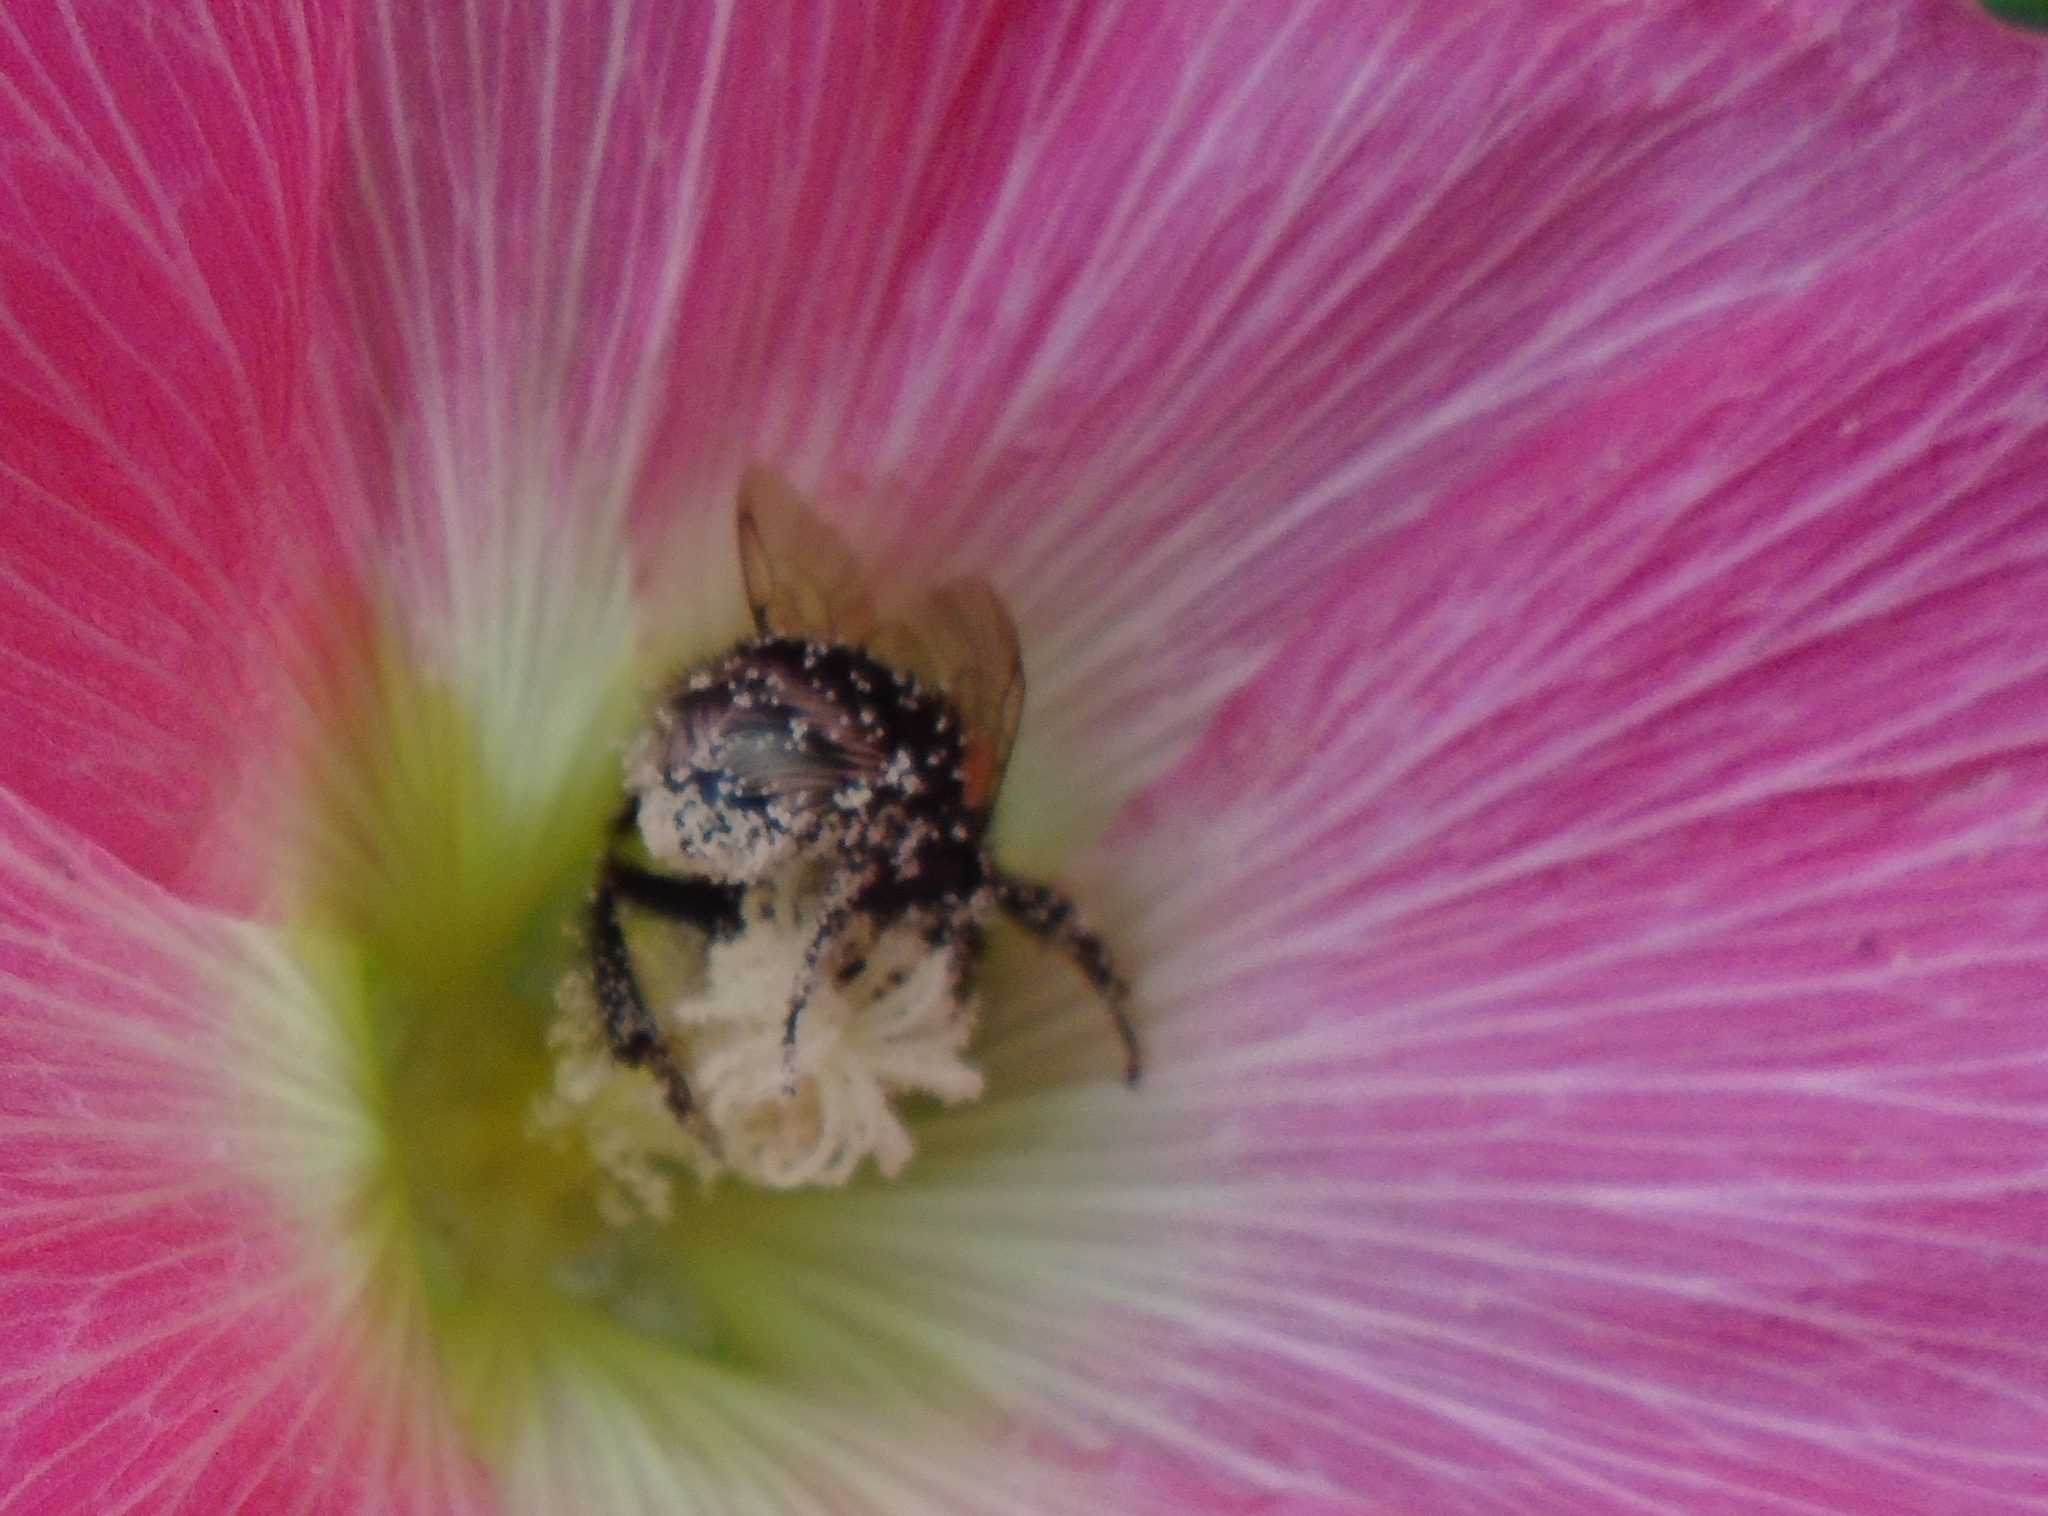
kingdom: Animalia
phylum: Arthropoda
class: Insecta
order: Hymenoptera
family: Apidae
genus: Bombus
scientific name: Bombus terrestris
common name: Buff-tailed bumblebee
